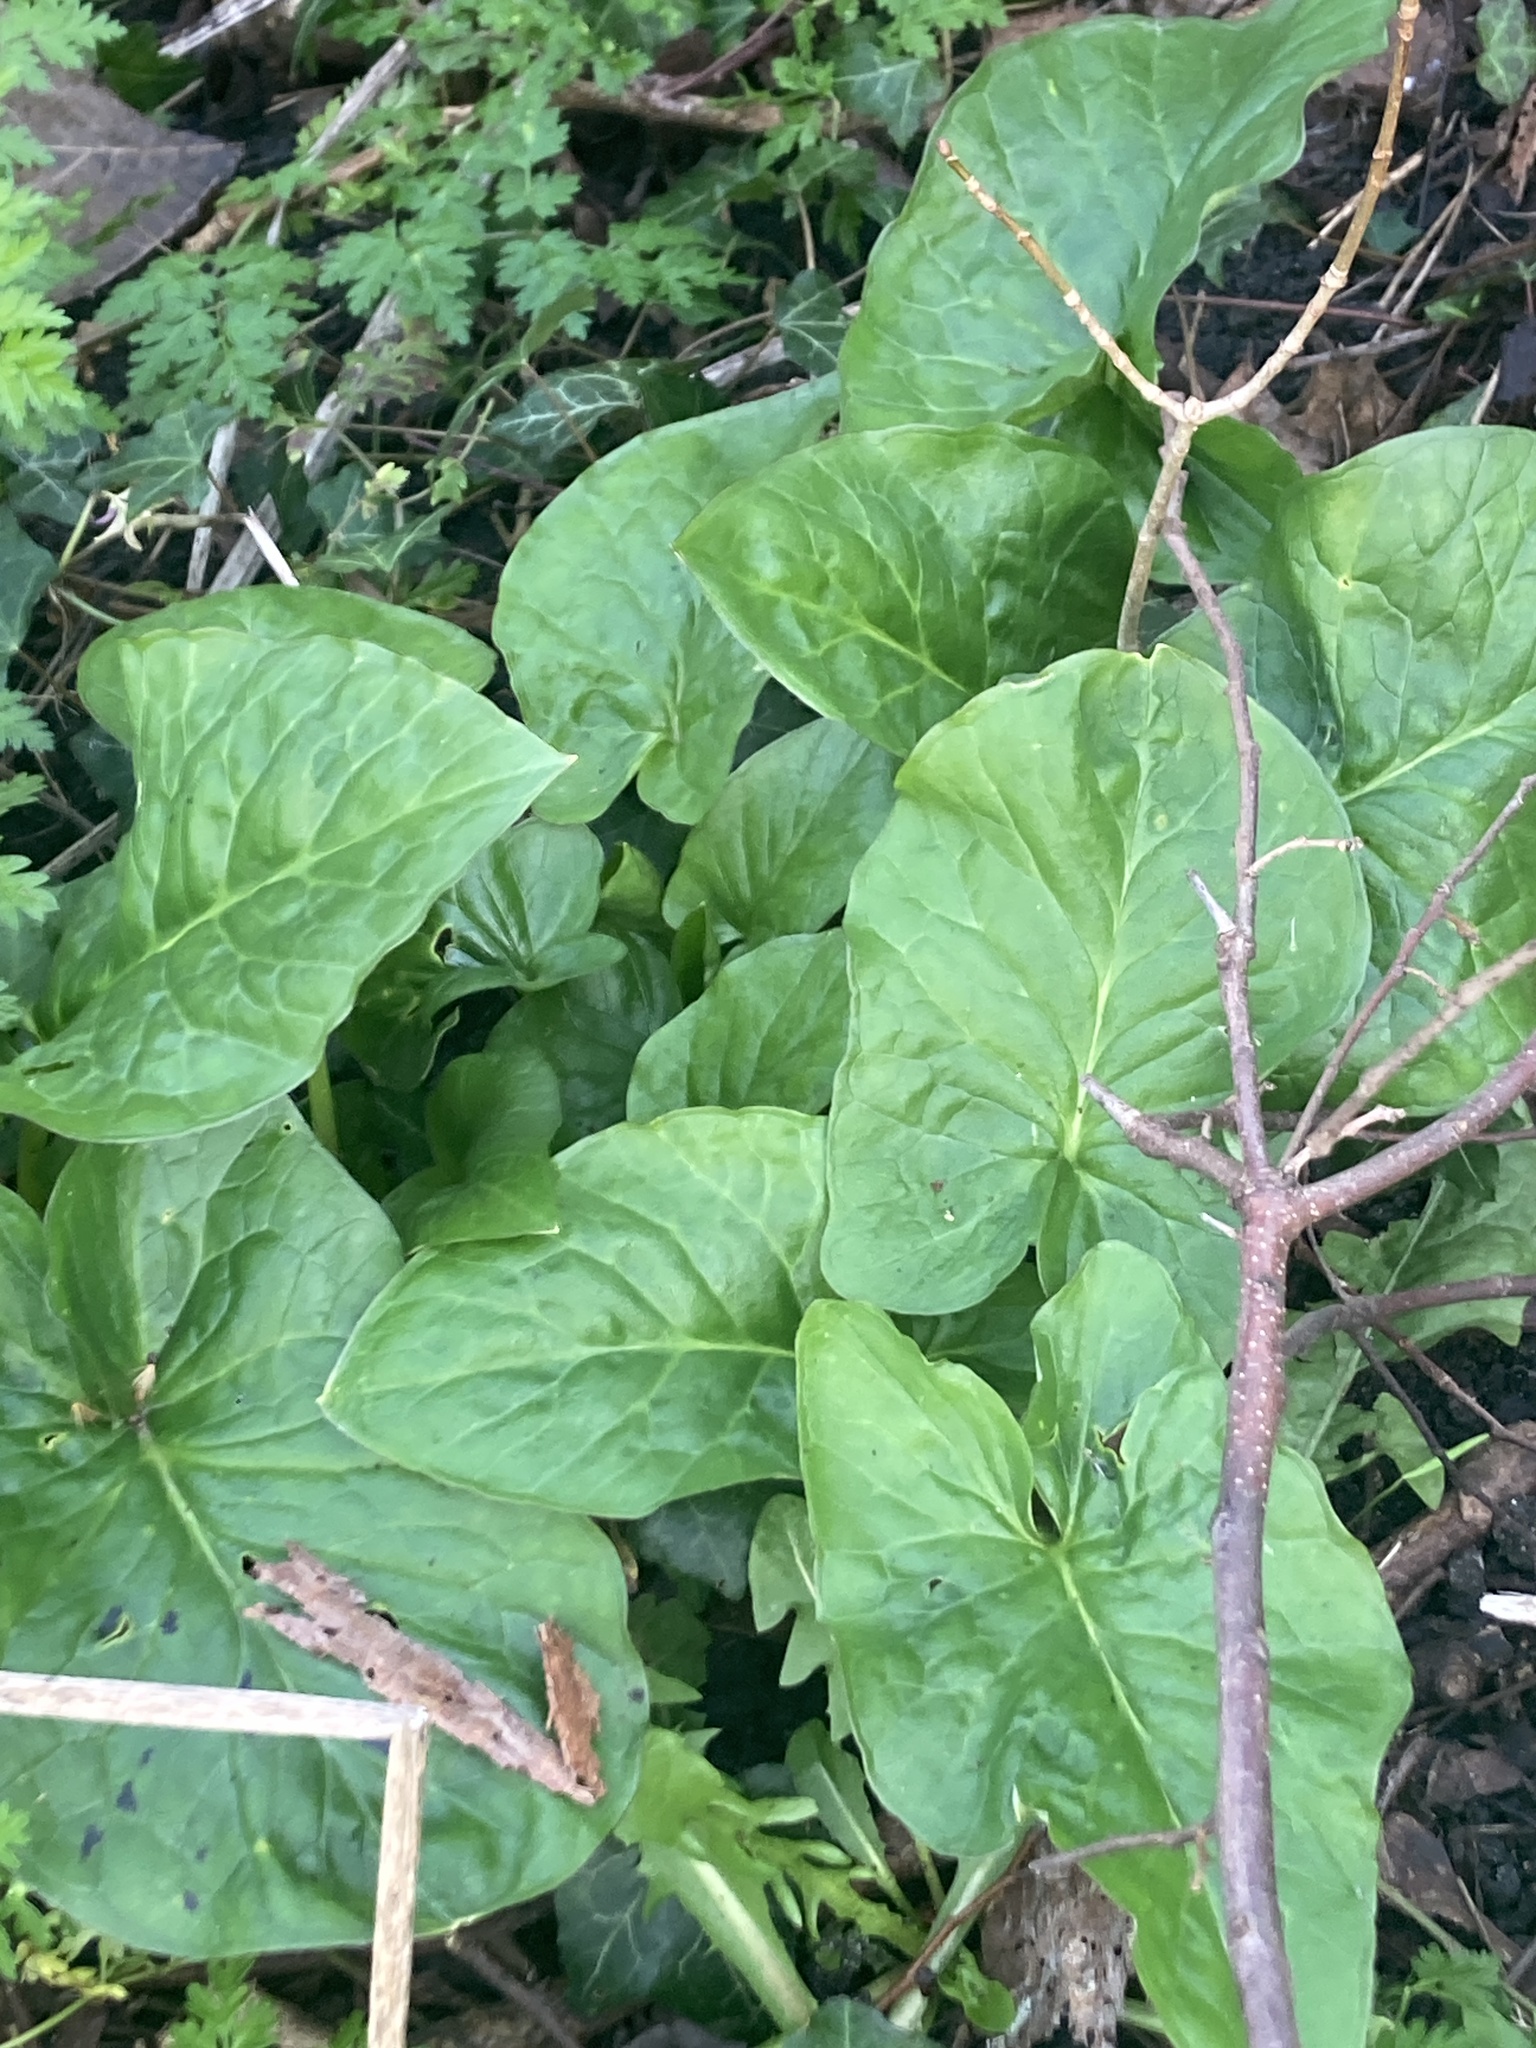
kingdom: Plantae
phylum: Tracheophyta
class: Liliopsida
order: Alismatales
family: Araceae
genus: Arum
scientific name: Arum maculatum
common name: Lords-and-ladies
